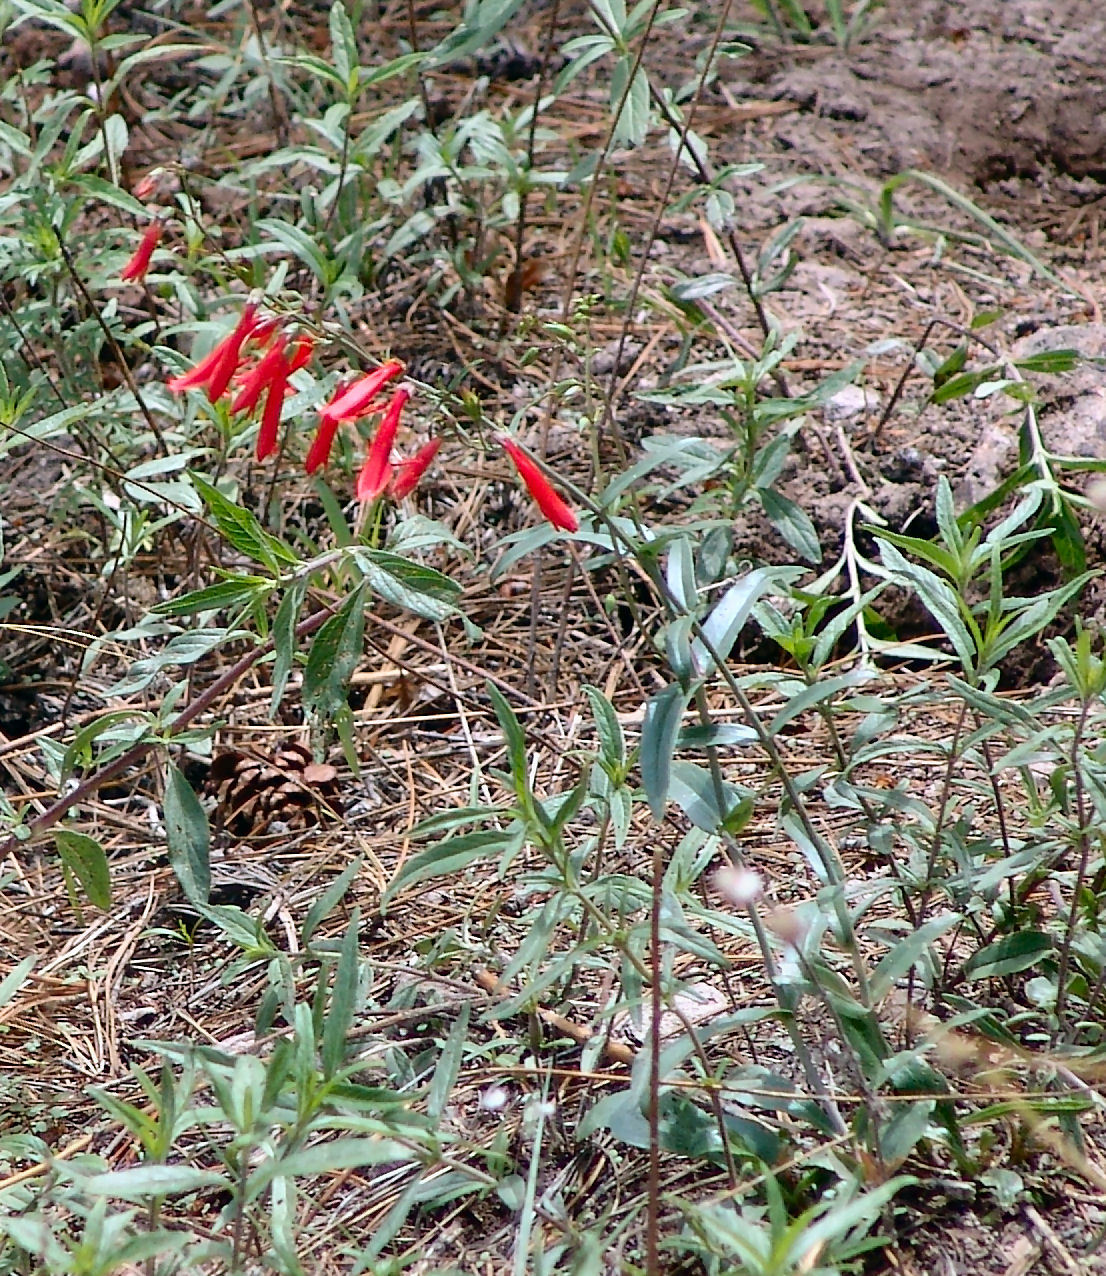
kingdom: Plantae
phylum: Tracheophyta
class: Magnoliopsida
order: Lamiales
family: Plantaginaceae
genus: Penstemon
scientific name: Penstemon barbatus
